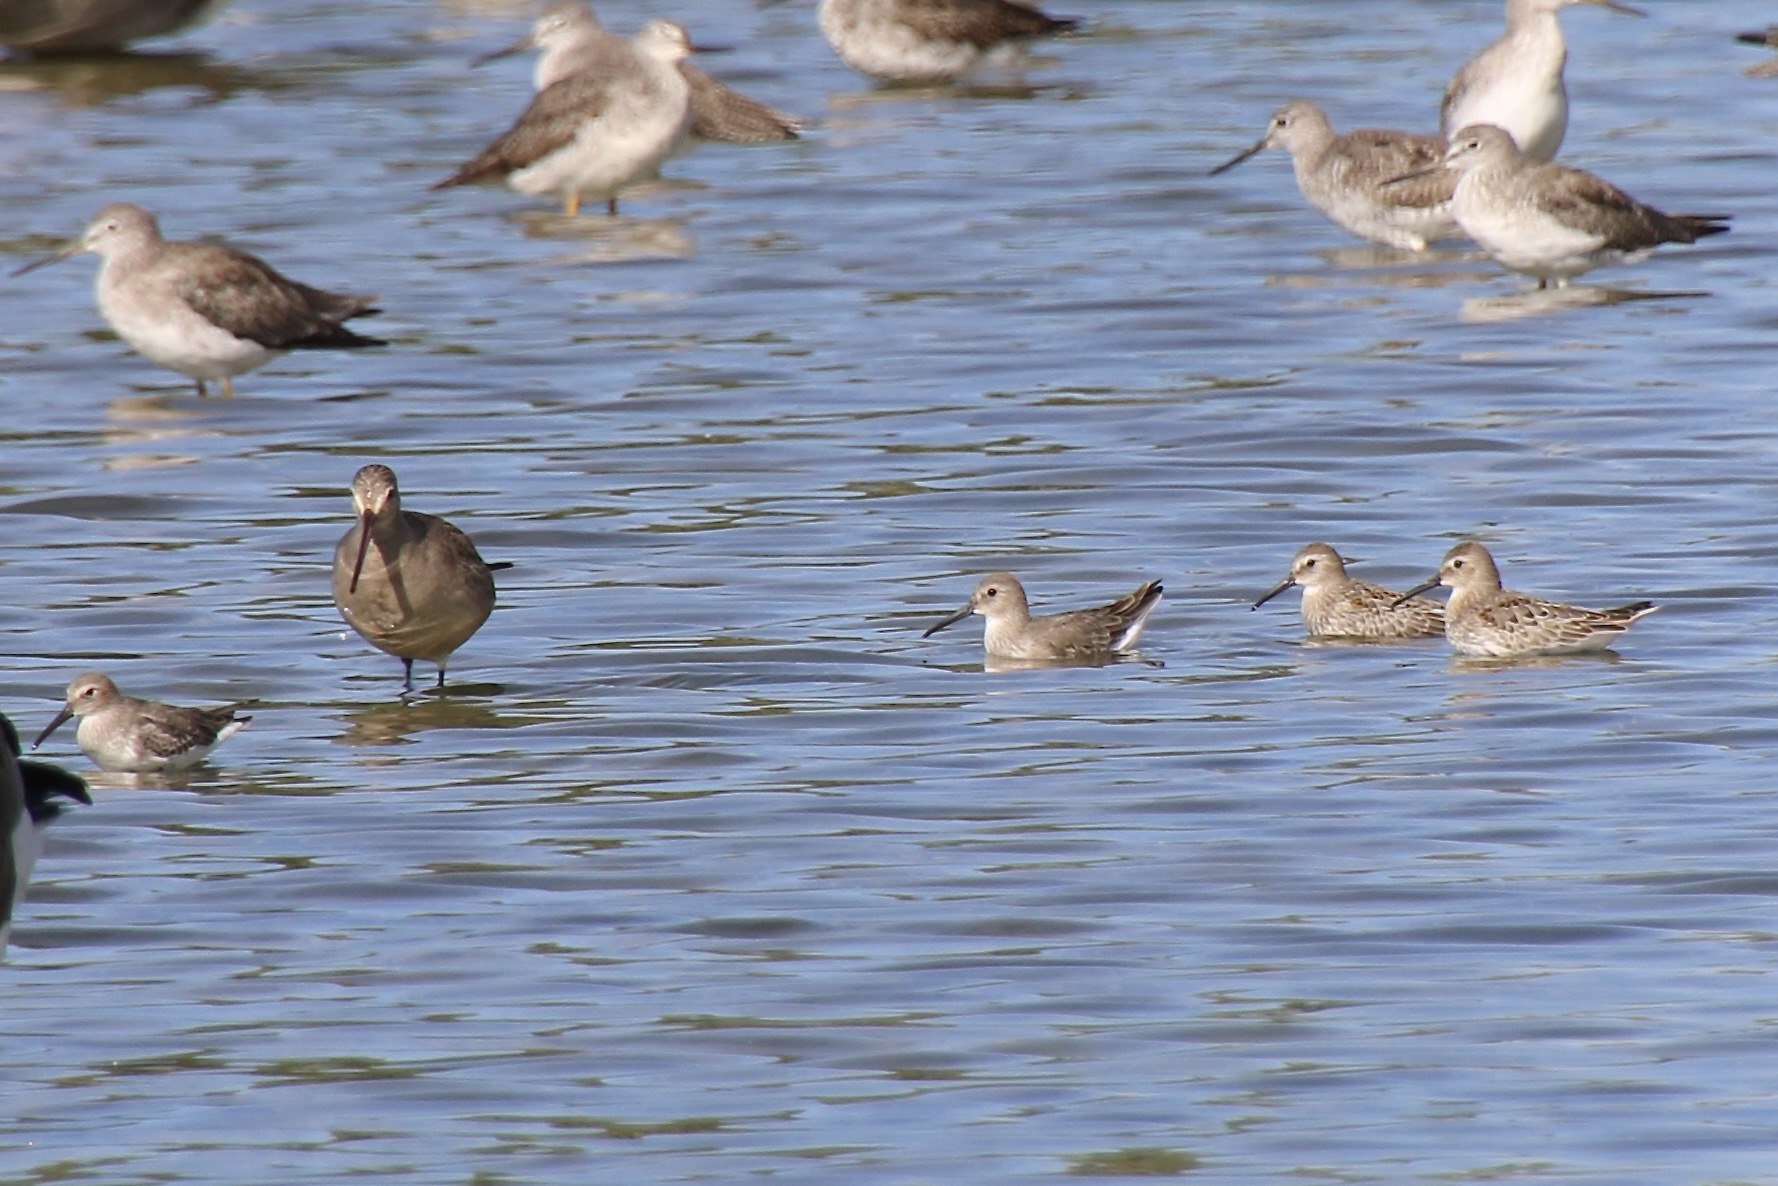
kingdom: Animalia
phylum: Chordata
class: Aves
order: Charadriiformes
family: Scolopacidae
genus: Calidris
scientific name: Calidris alpina
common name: Dunlin
